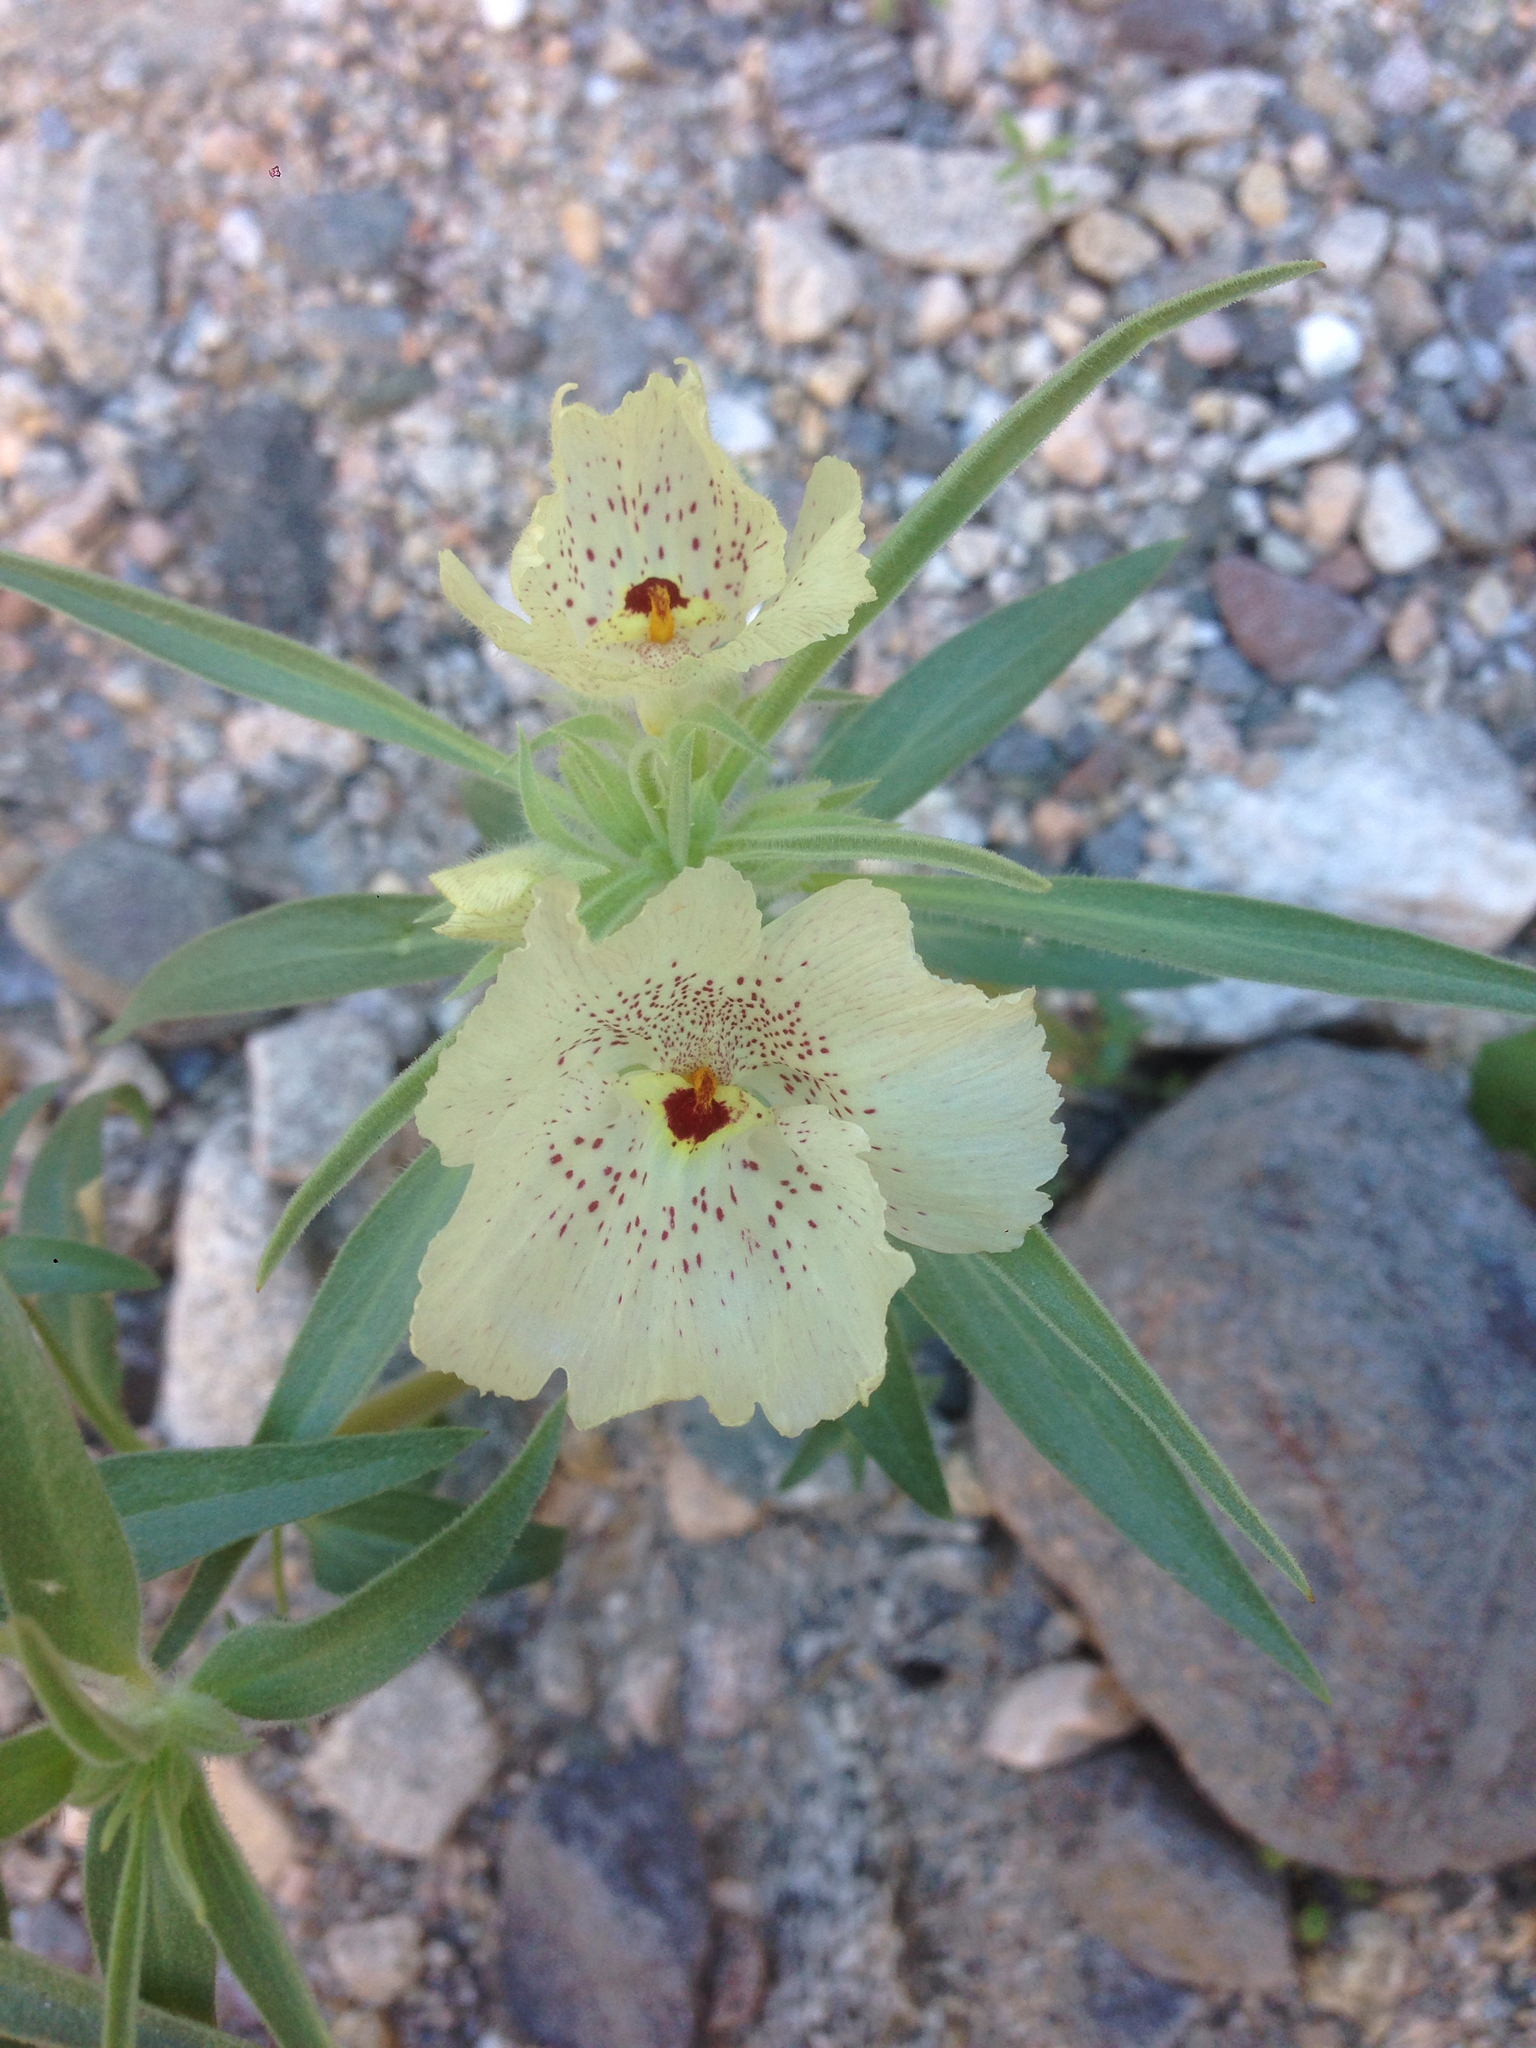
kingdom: Plantae
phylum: Tracheophyta
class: Magnoliopsida
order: Lamiales
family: Plantaginaceae
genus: Mohavea
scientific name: Mohavea confertiflora
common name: Ghost flower
